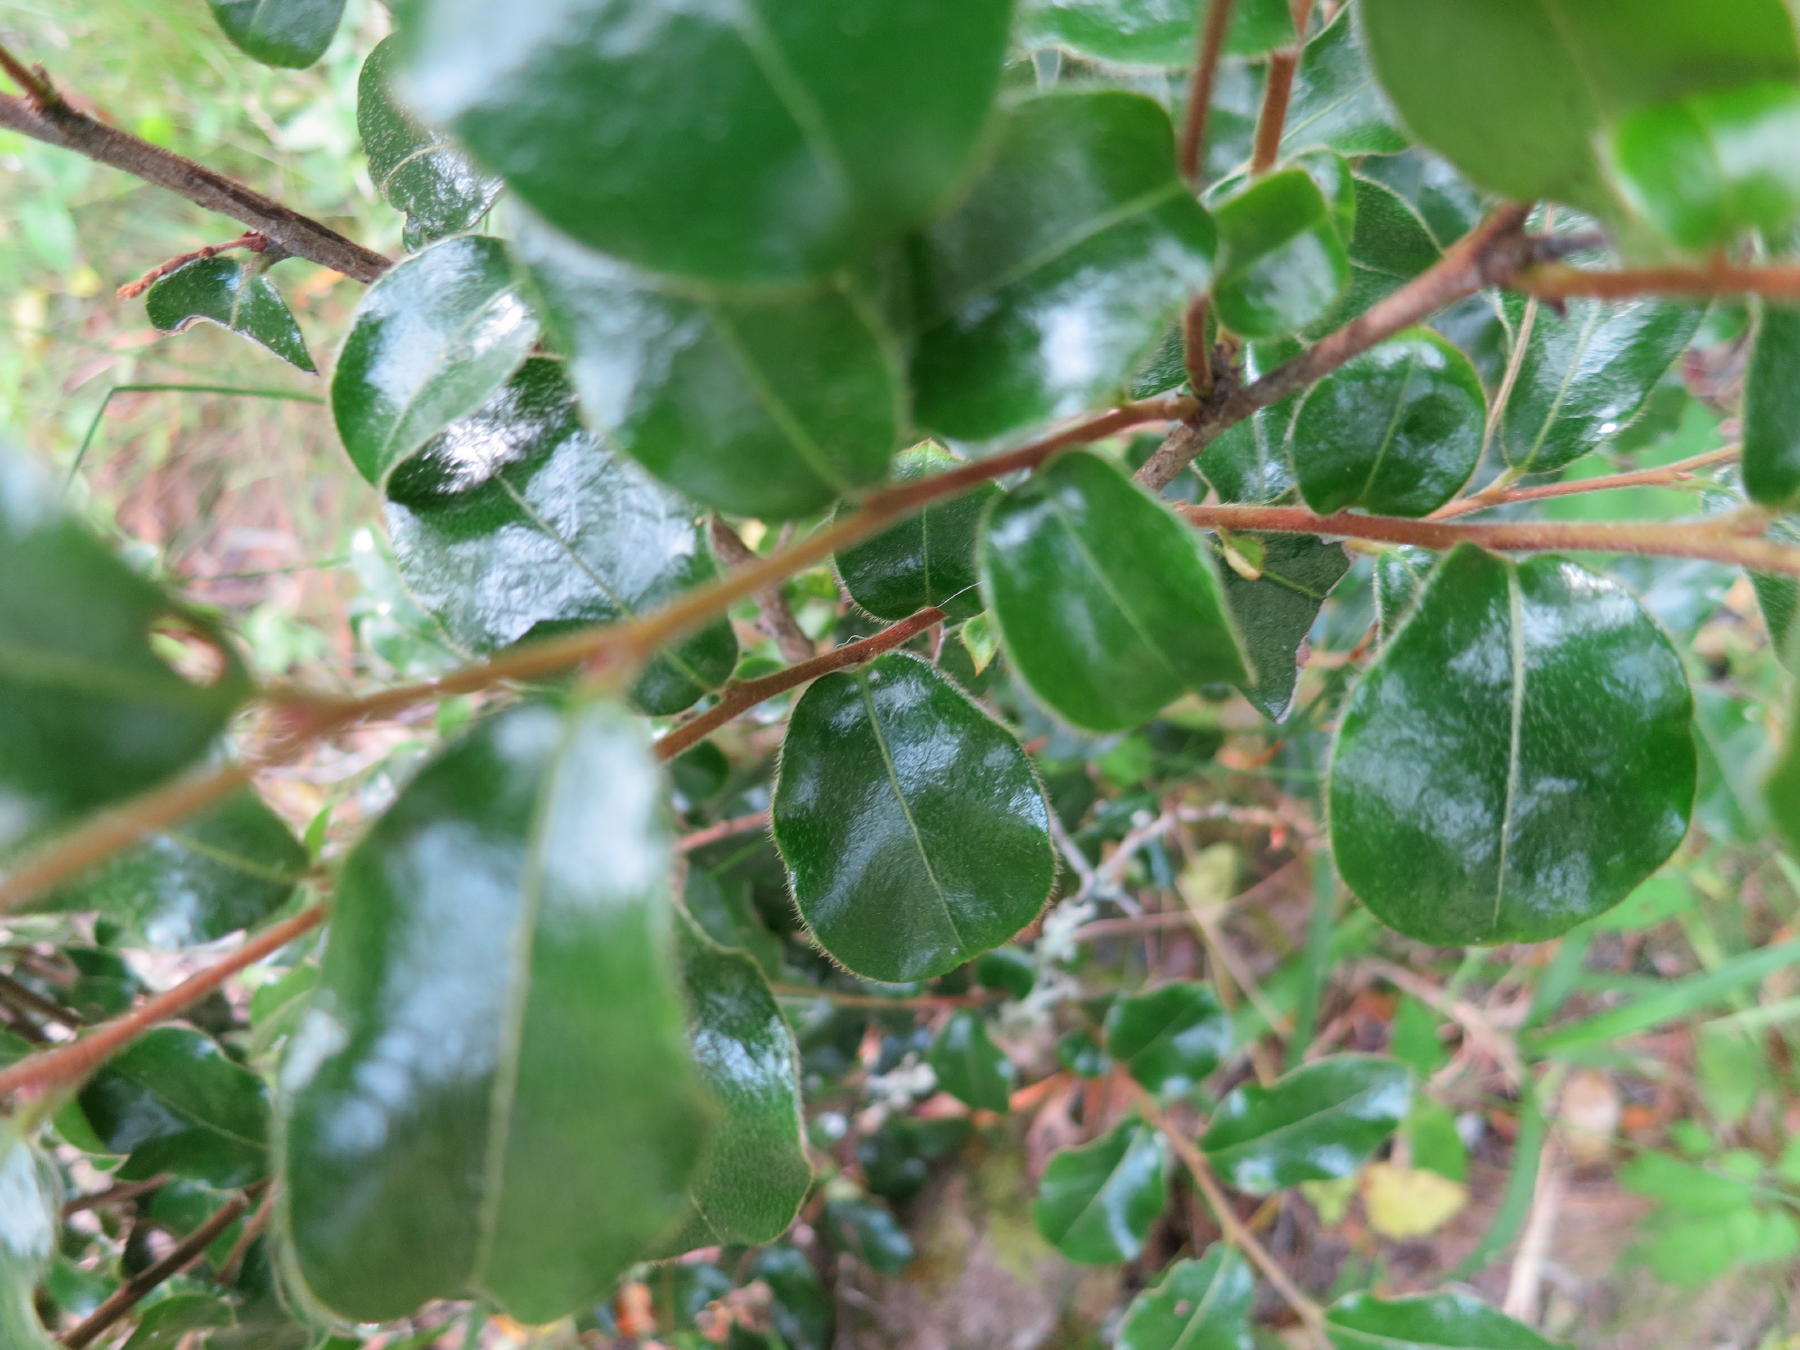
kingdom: Plantae
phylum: Tracheophyta
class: Magnoliopsida
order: Ericales
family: Ebenaceae
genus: Diospyros
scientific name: Diospyros whyteana
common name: Bladder-nut
